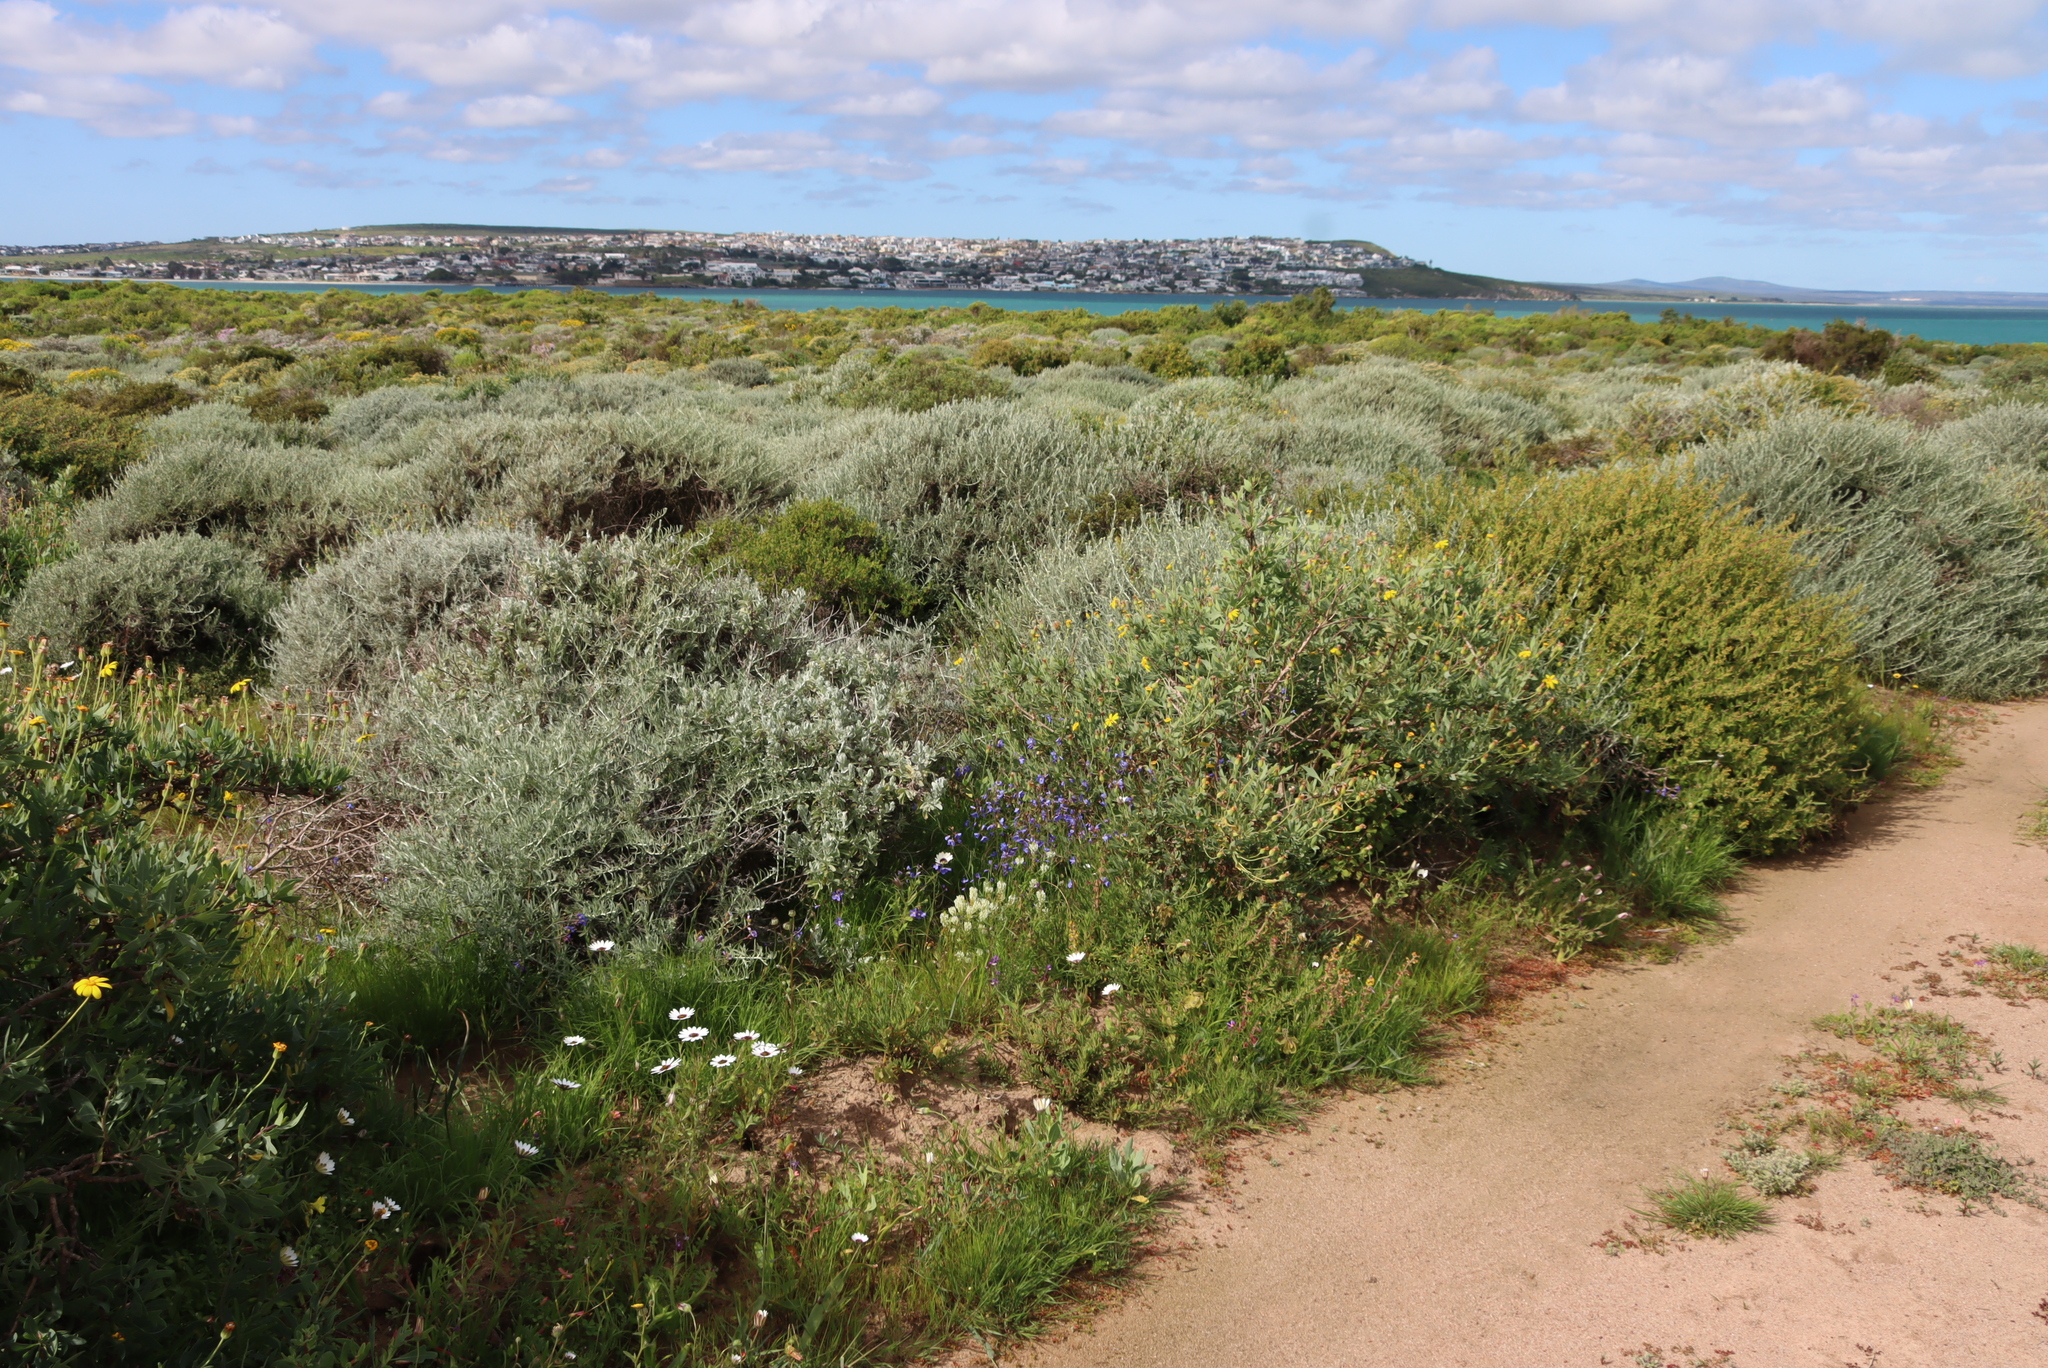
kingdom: Plantae
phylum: Tracheophyta
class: Magnoliopsida
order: Brassicales
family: Brassicaceae
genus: Heliophila
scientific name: Heliophila coronopifolia
